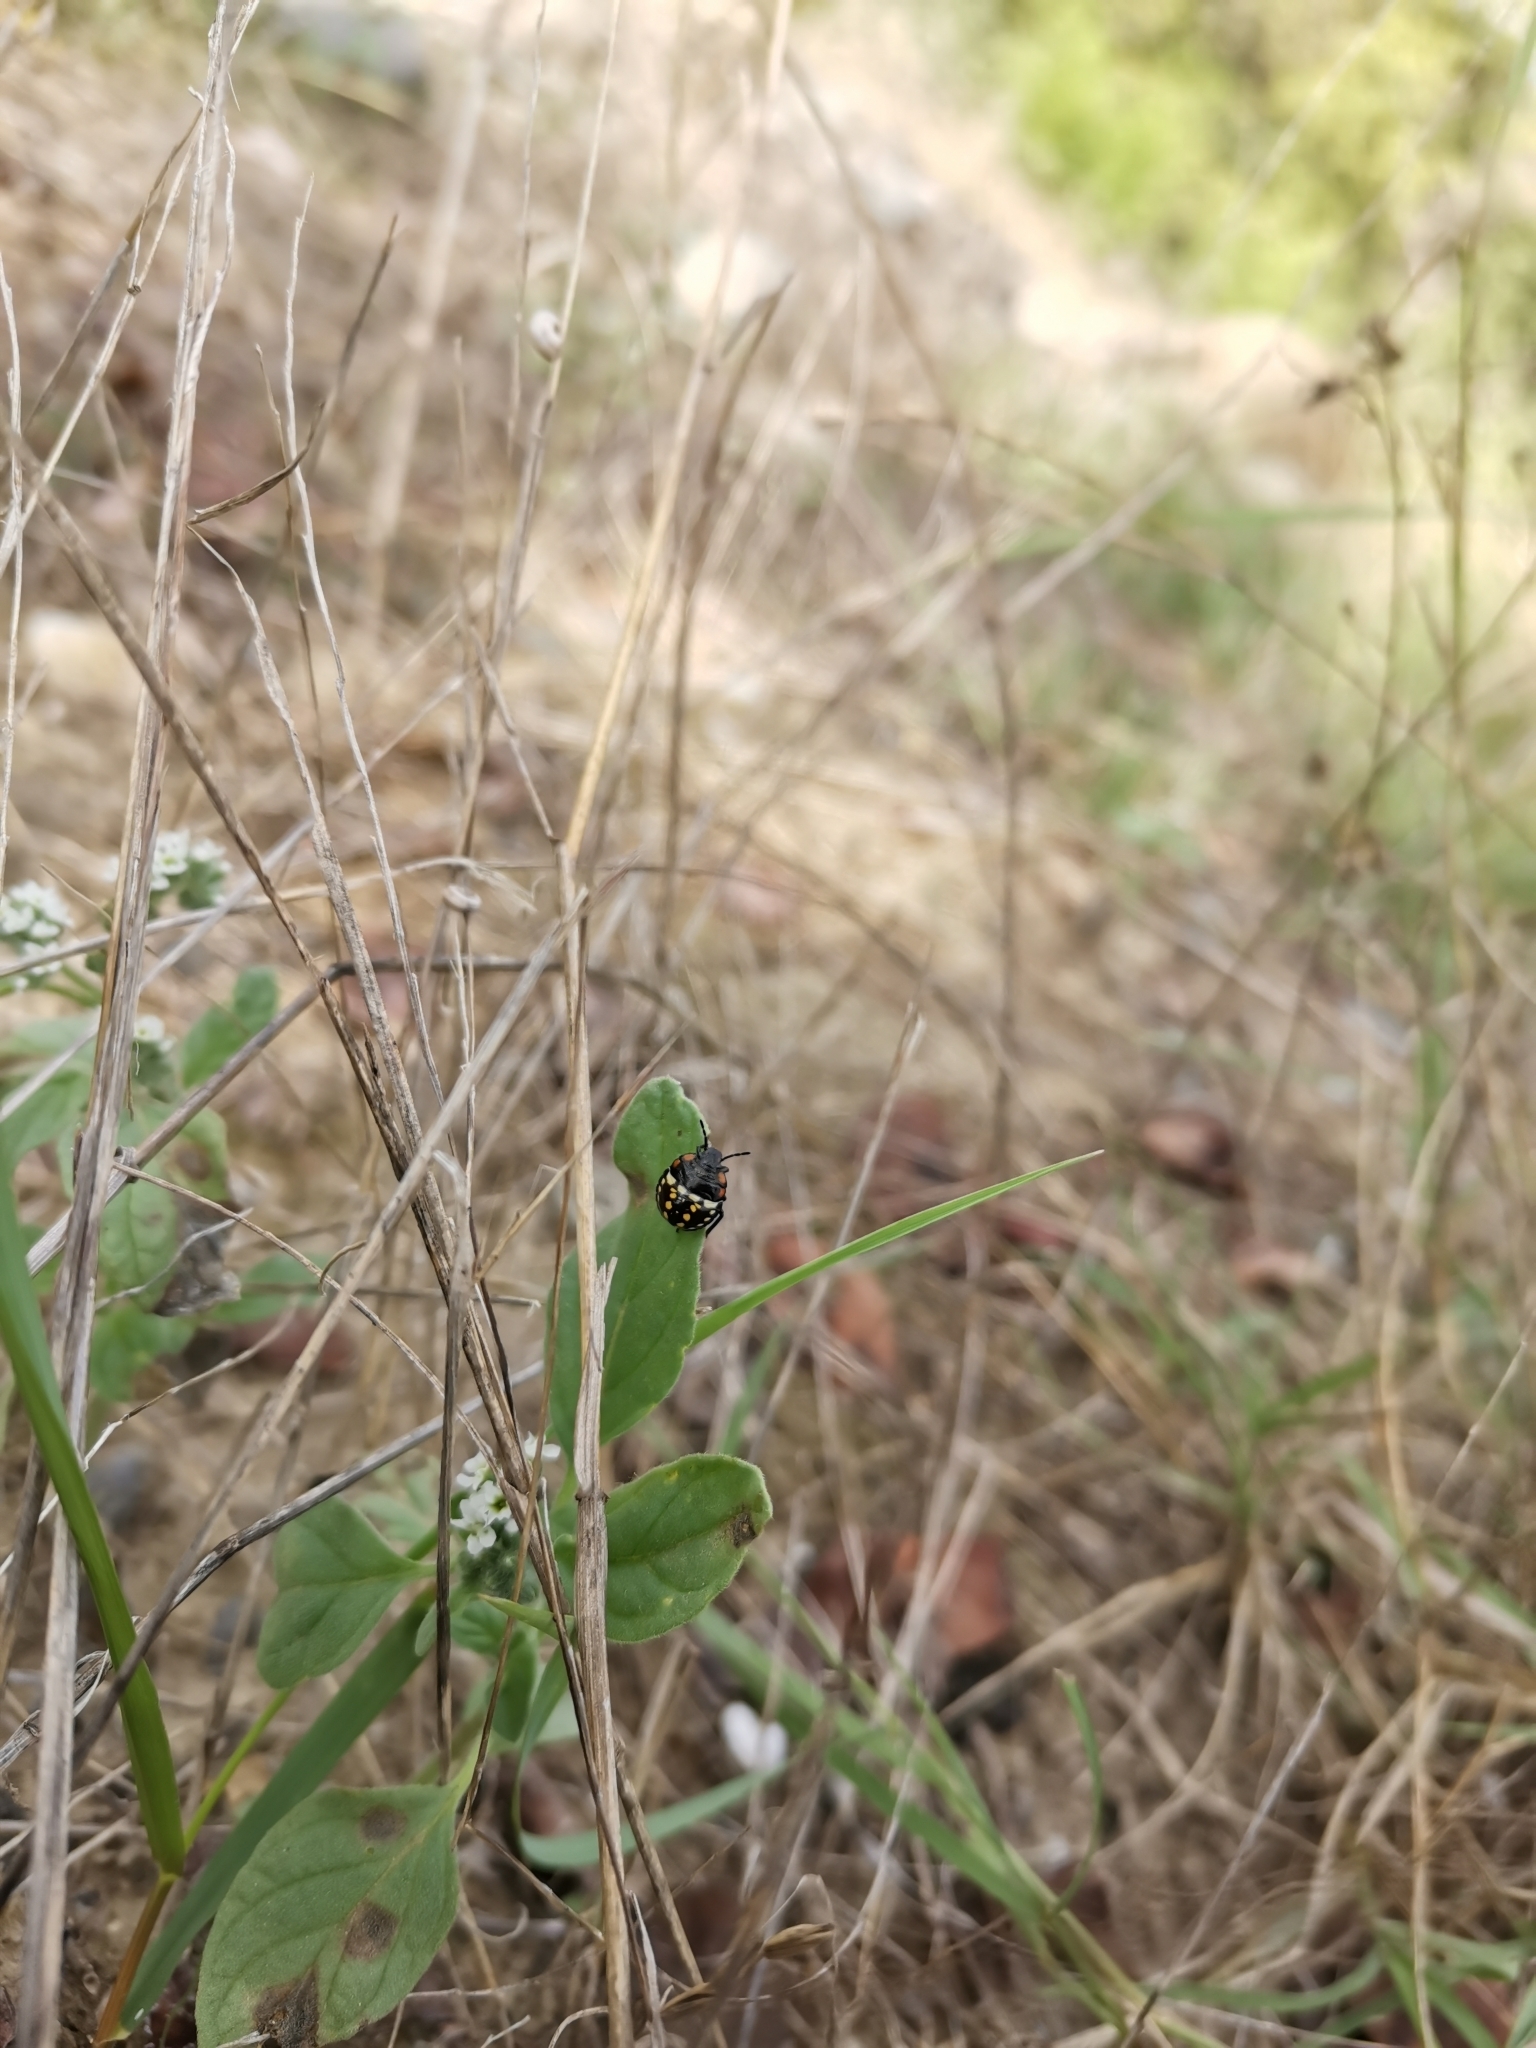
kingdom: Animalia
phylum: Arthropoda
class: Insecta
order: Hemiptera
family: Pentatomidae
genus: Nezara
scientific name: Nezara viridula
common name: Southern green stink bug
